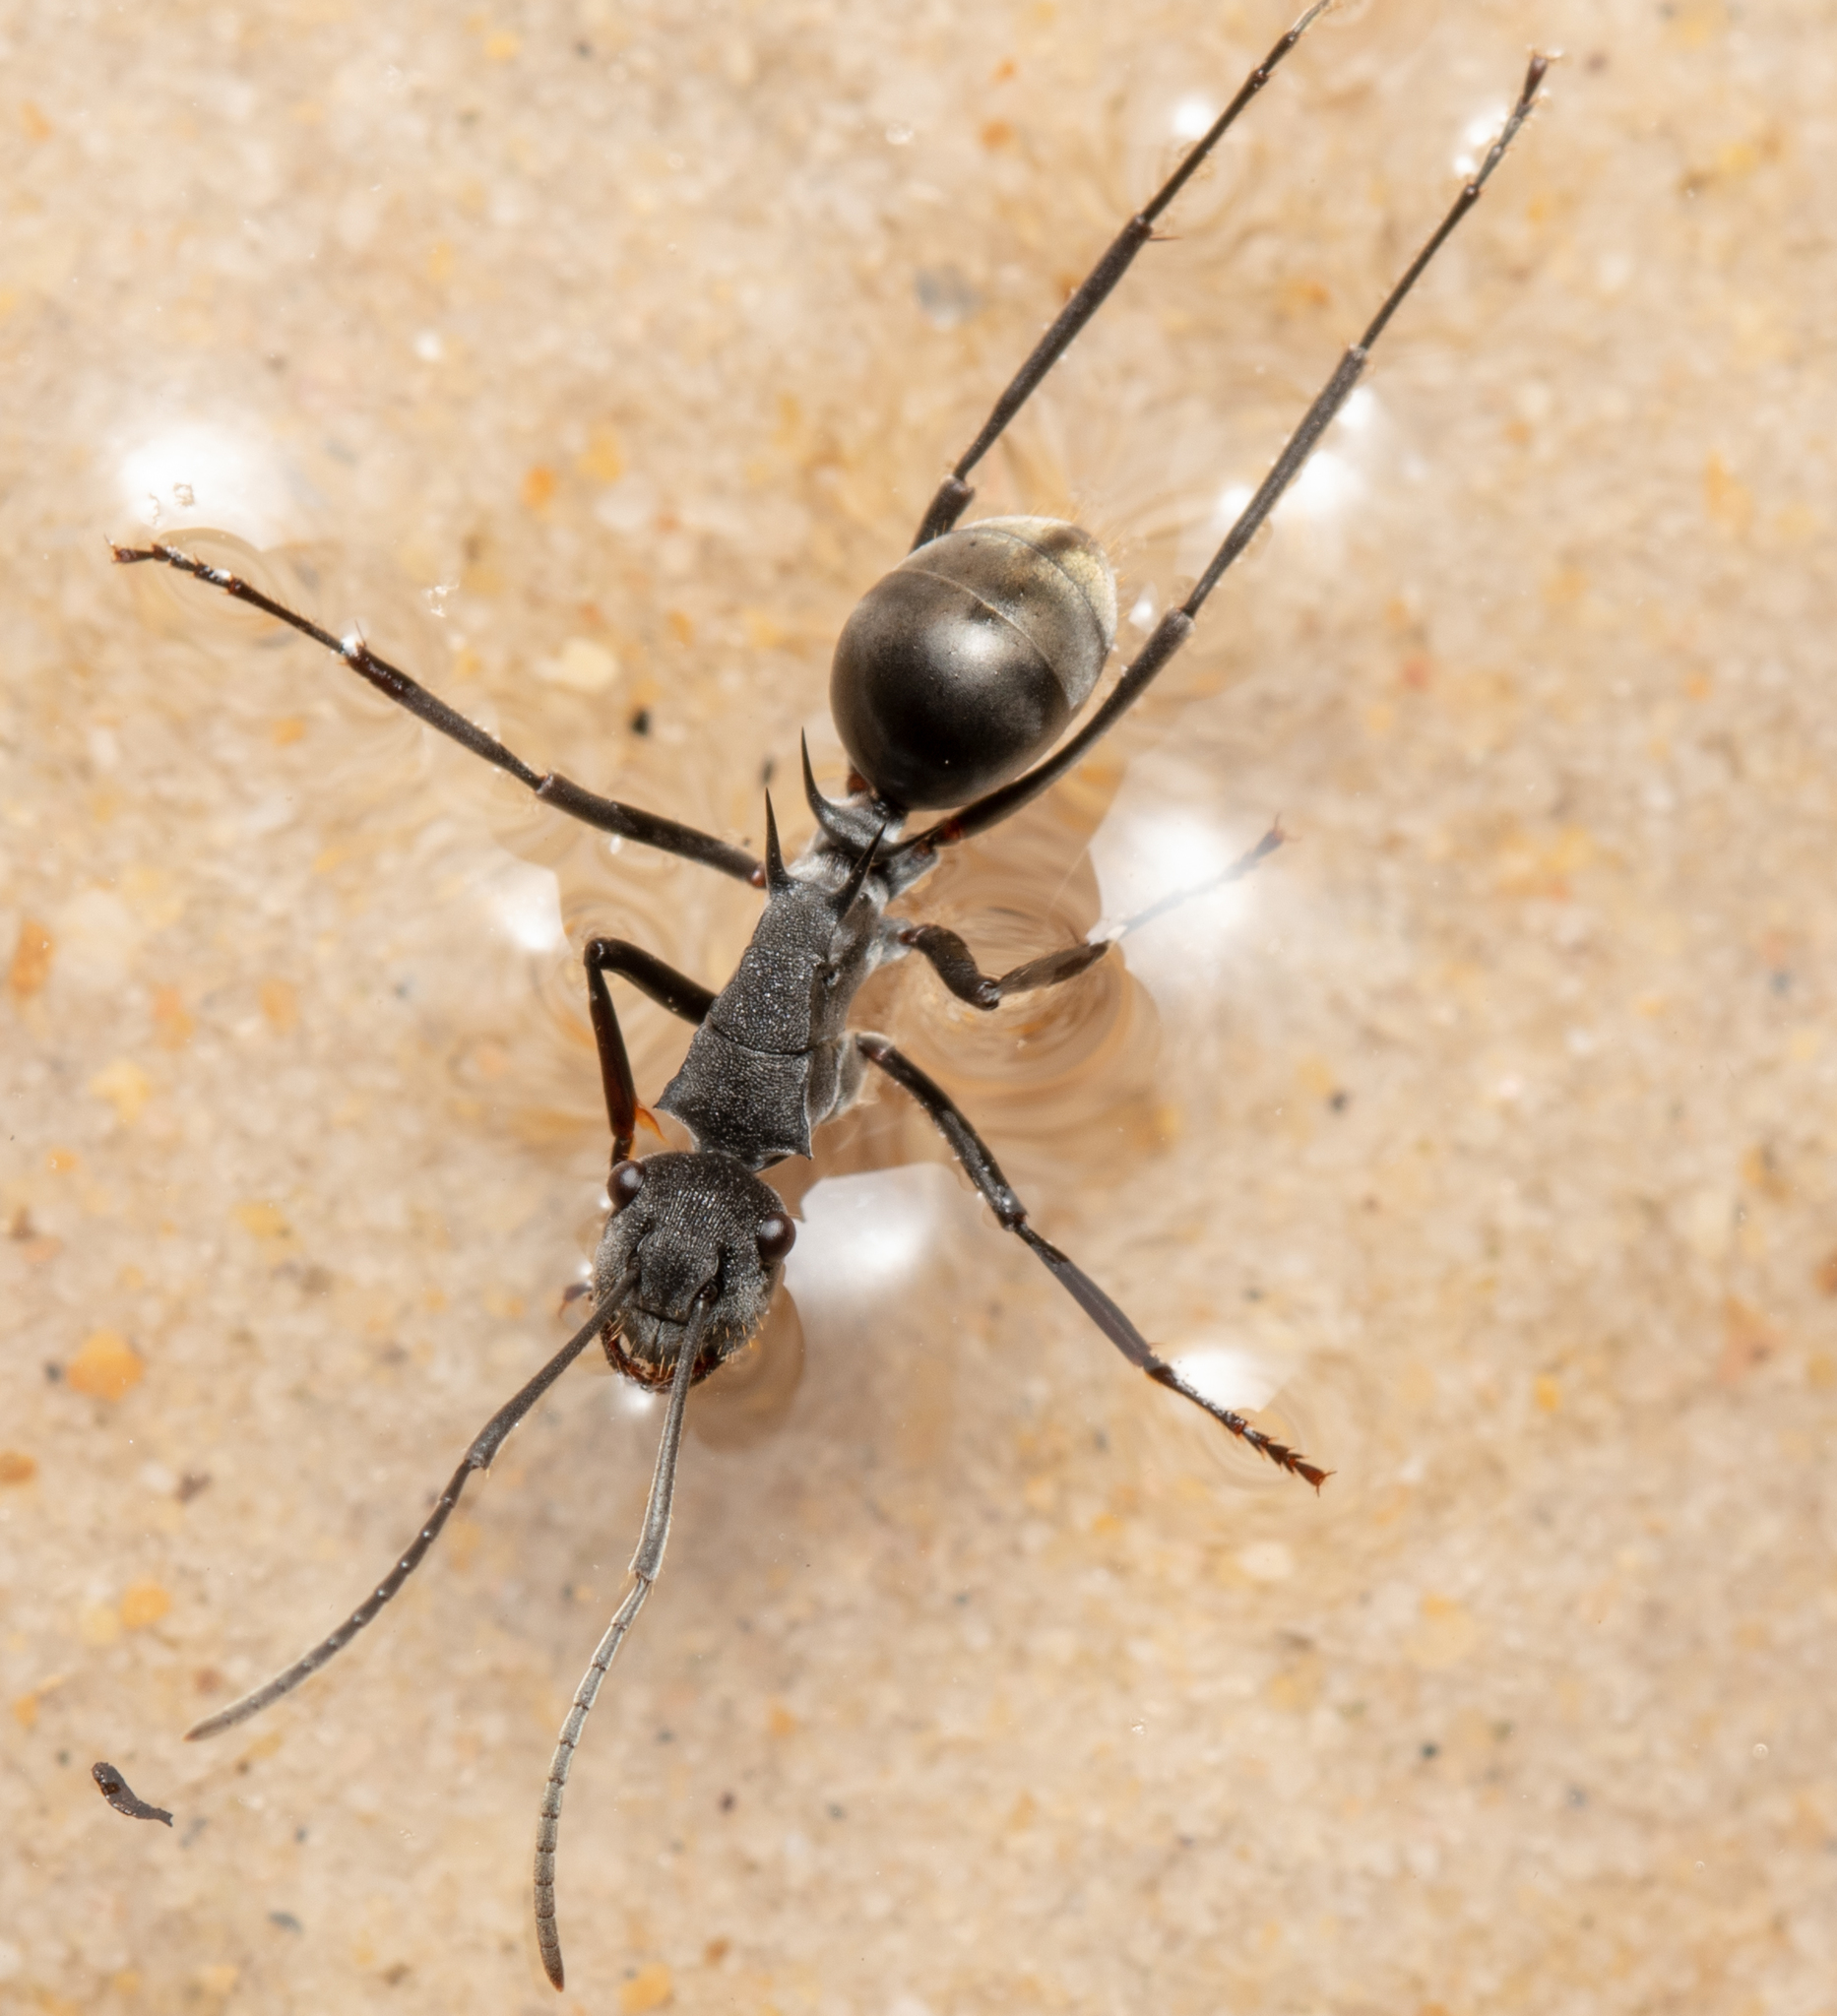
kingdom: Animalia
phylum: Arthropoda
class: Insecta
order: Hymenoptera
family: Formicidae
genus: Polyrhachis
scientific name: Polyrhachis sokolova
